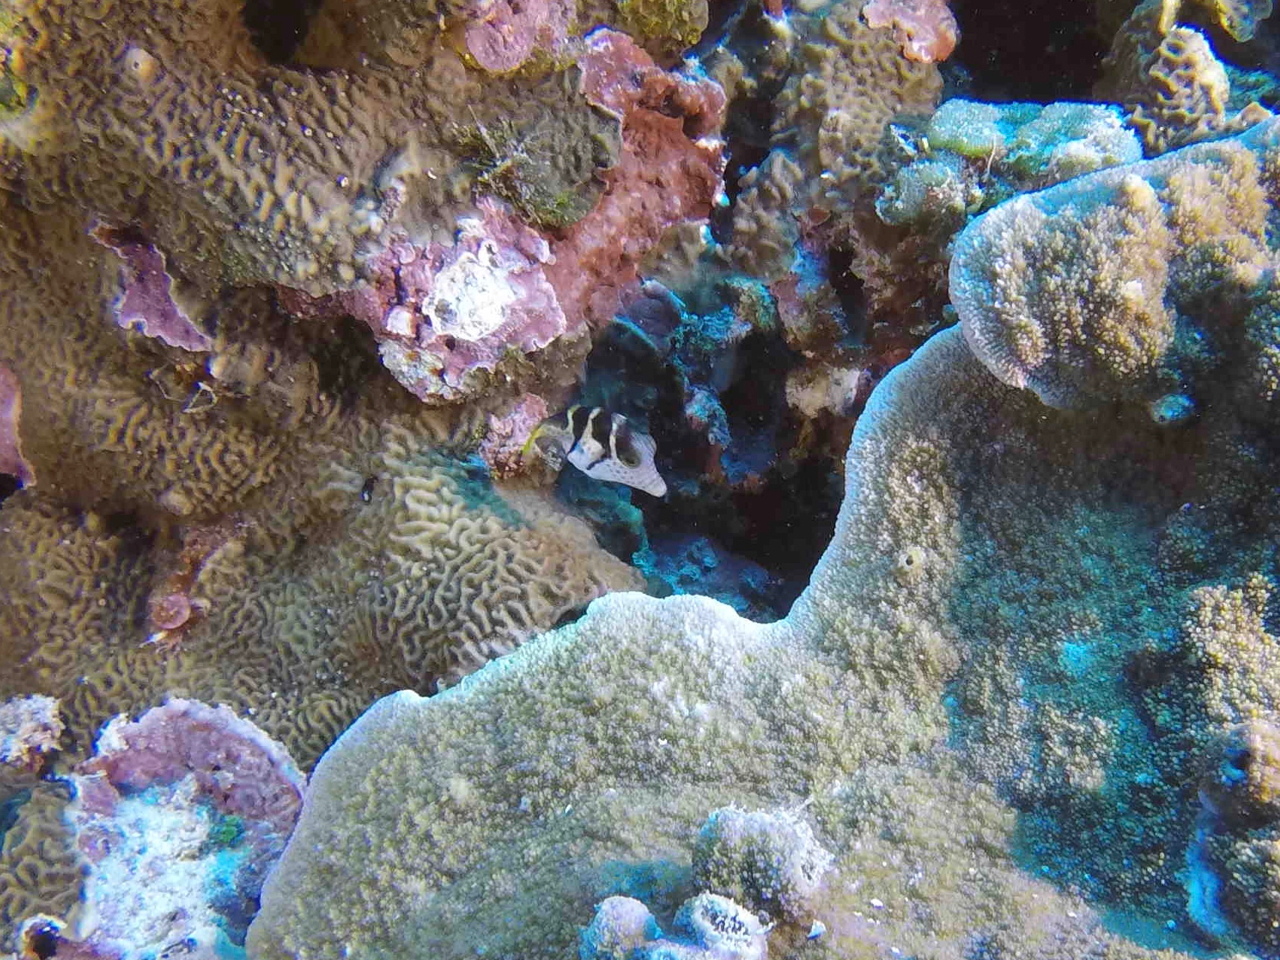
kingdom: Animalia
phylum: Chordata
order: Tetraodontiformes
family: Monacanthidae
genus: Paraluteres
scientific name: Paraluteres prionurus
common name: Black-saddled leatherjacket
